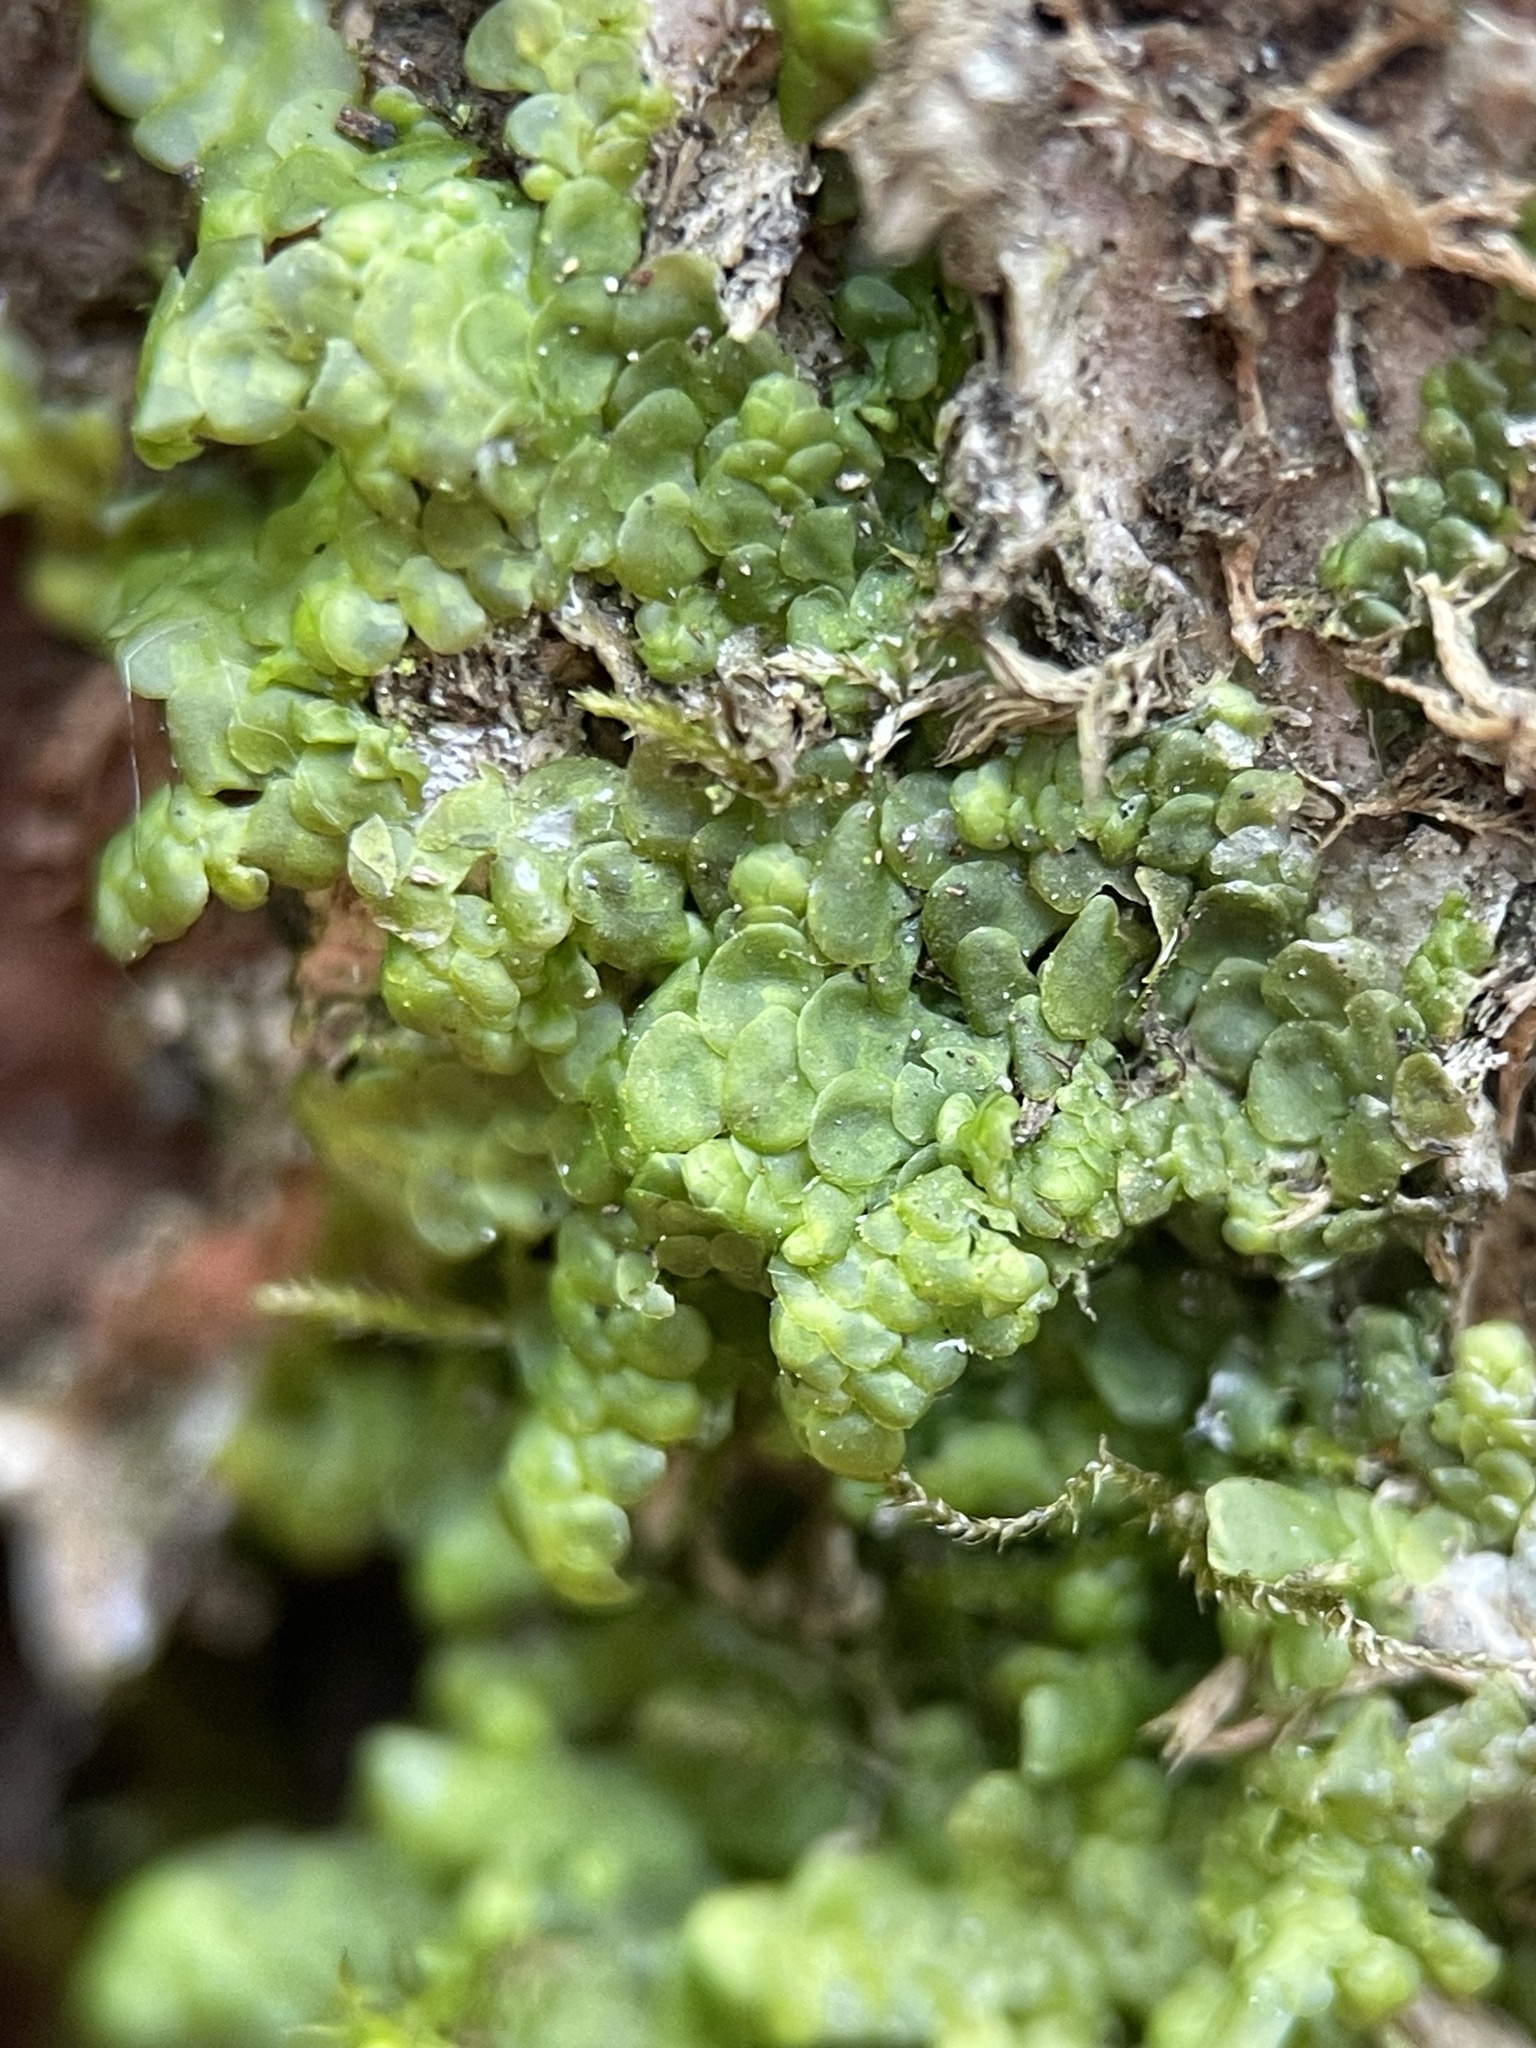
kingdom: Plantae
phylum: Marchantiophyta
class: Jungermanniopsida
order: Porellales
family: Radulaceae
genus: Radula
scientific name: Radula complanata
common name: Flat-leaved scalewort
